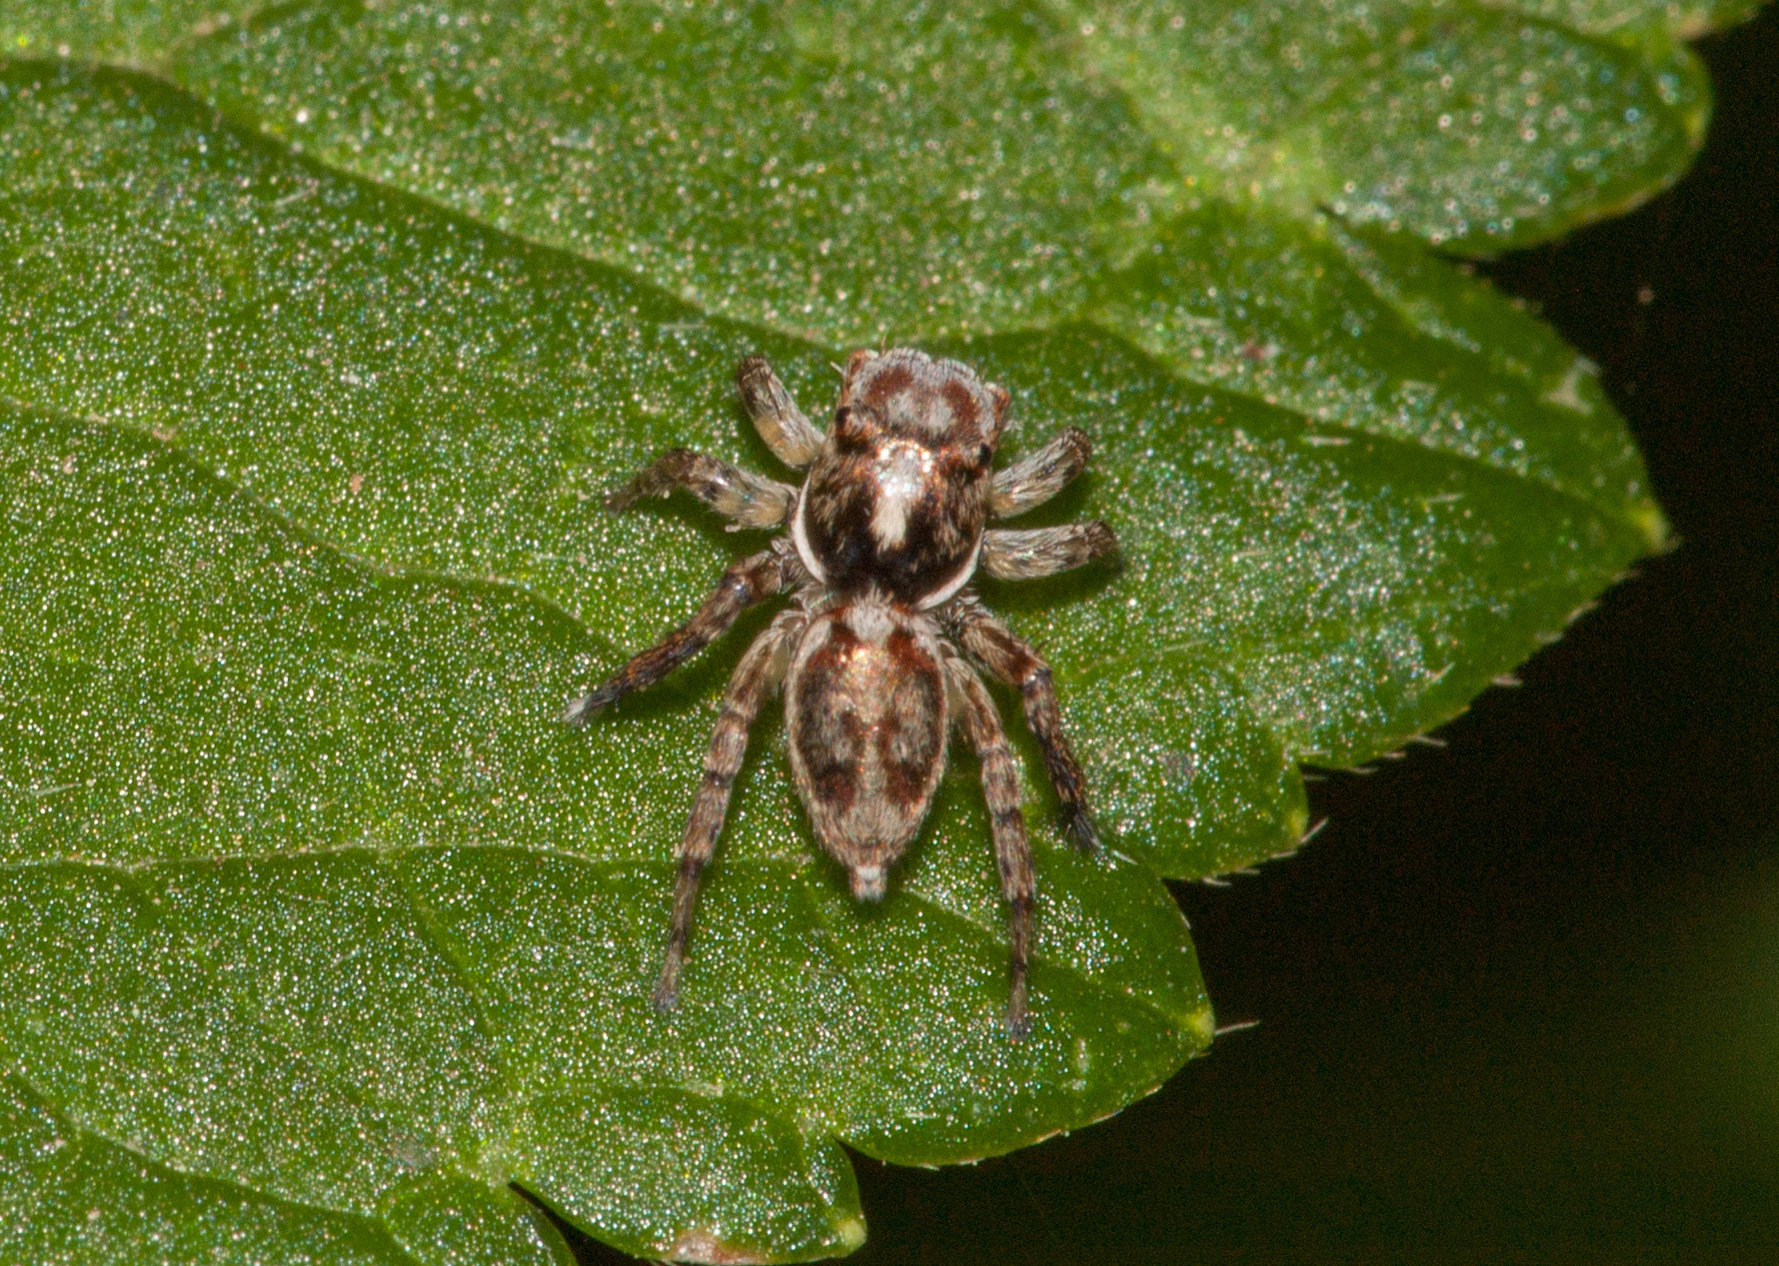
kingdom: Animalia
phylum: Arthropoda
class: Arachnida
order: Araneae
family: Salticidae
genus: Maratus
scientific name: Maratus leo
